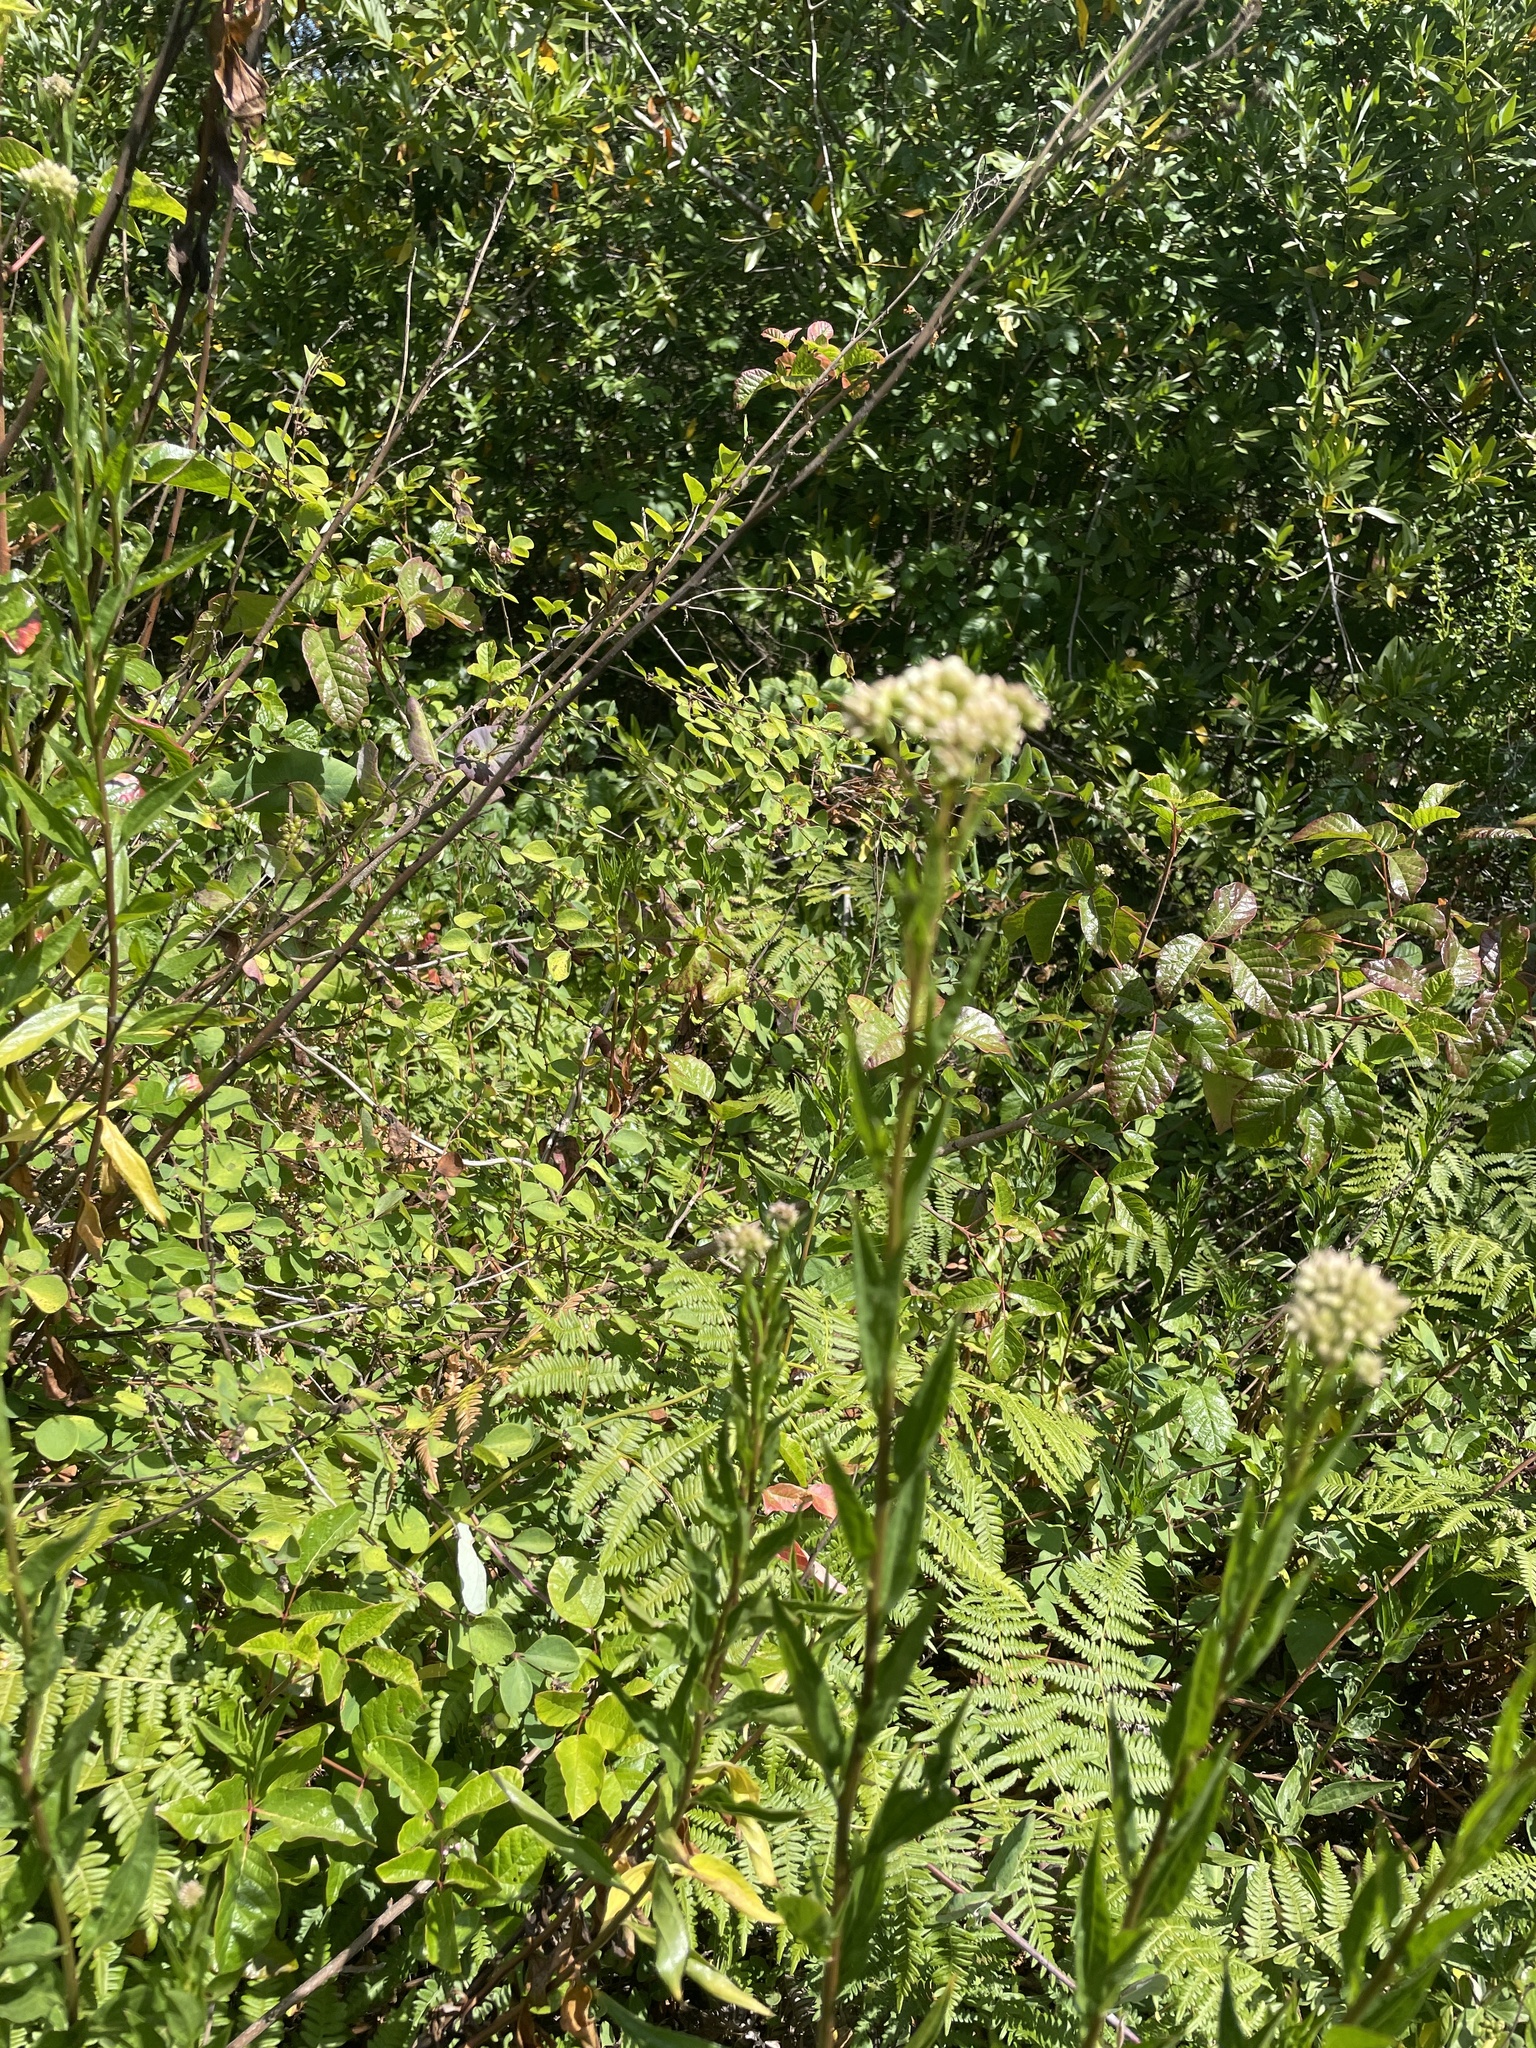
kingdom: Plantae
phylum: Tracheophyta
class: Magnoliopsida
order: Asterales
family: Asteraceae
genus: Baccharis
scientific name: Baccharis glutinosa
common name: Saltmarsh baccharis
